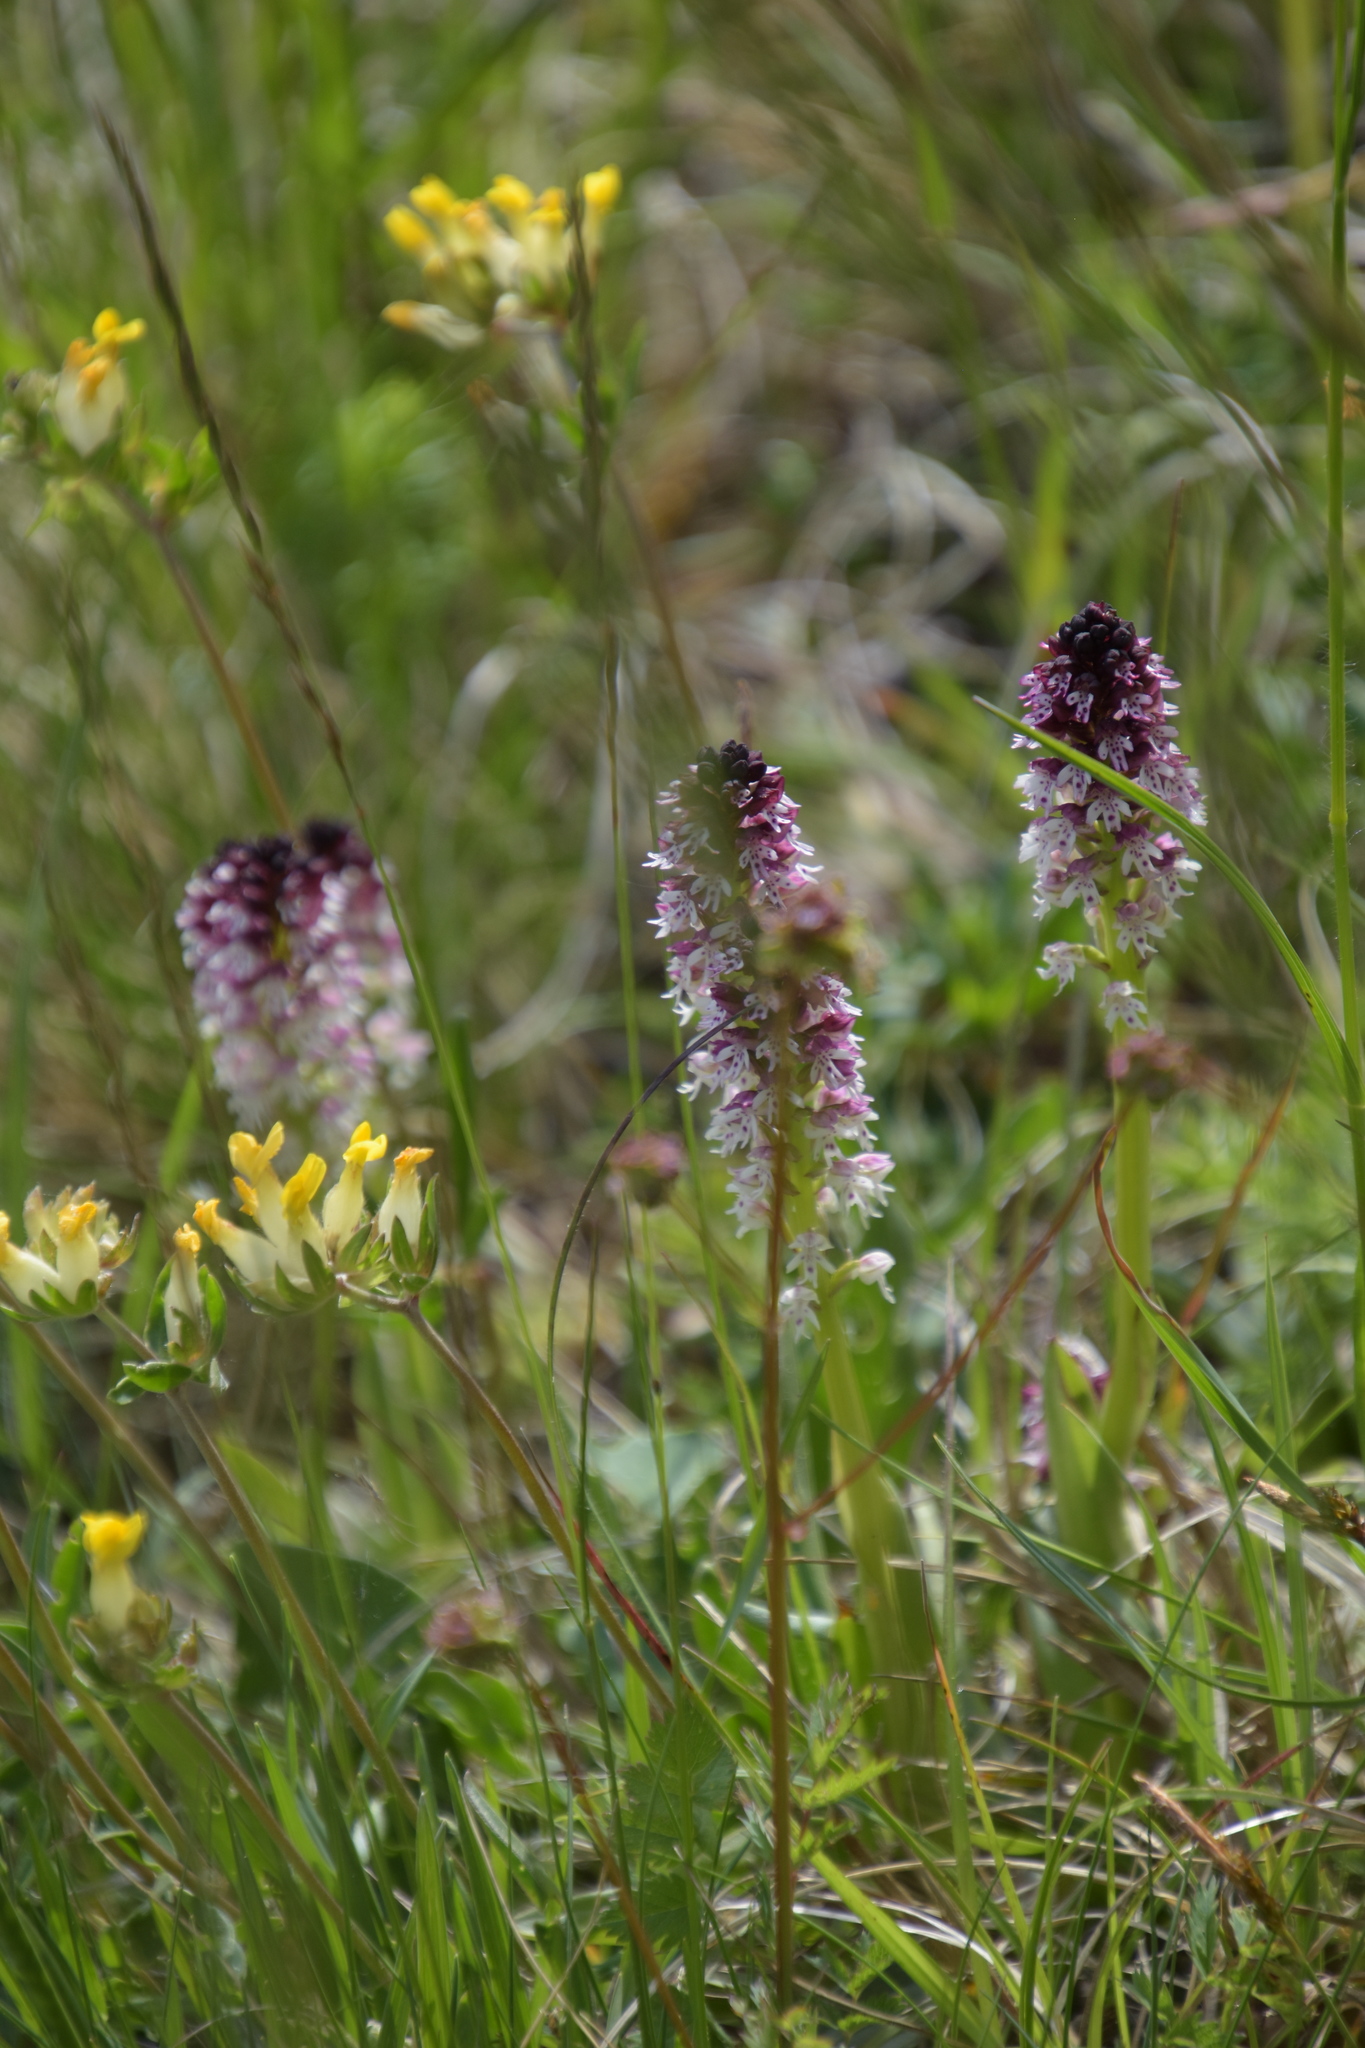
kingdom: Plantae
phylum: Tracheophyta
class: Liliopsida
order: Asparagales
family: Orchidaceae
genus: Neotinea
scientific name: Neotinea ustulata
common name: Burnt orchid
